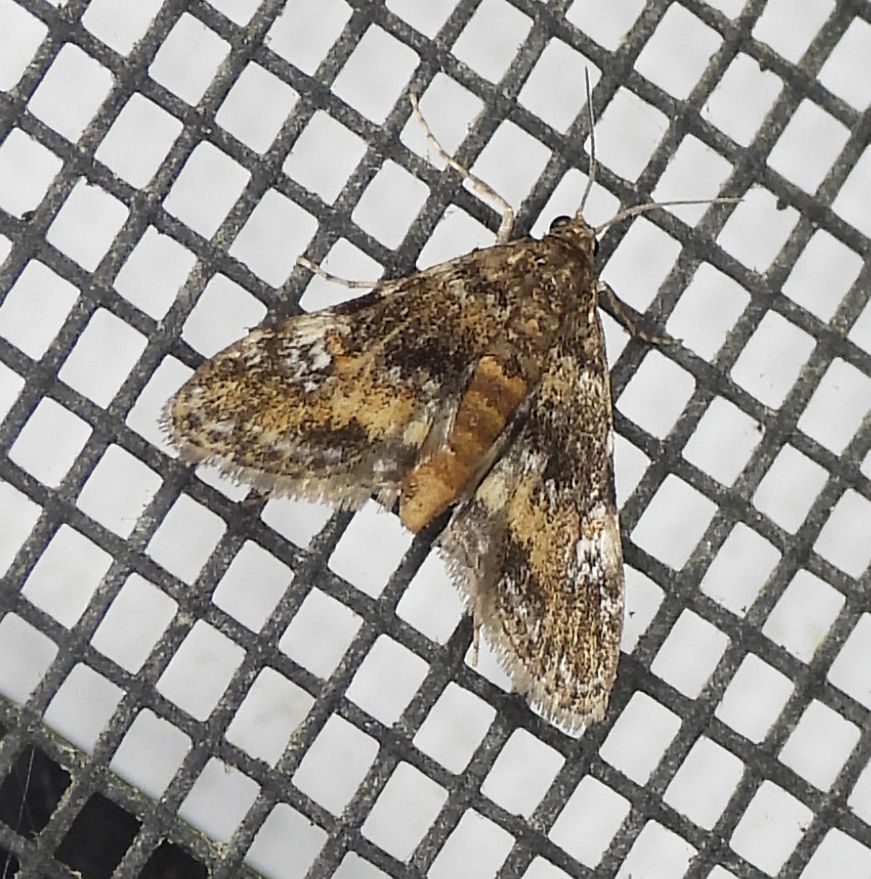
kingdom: Animalia
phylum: Arthropoda
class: Insecta
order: Lepidoptera
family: Crambidae
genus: Elophila
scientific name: Elophila obliteralis
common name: Waterlily leafcutter moth
